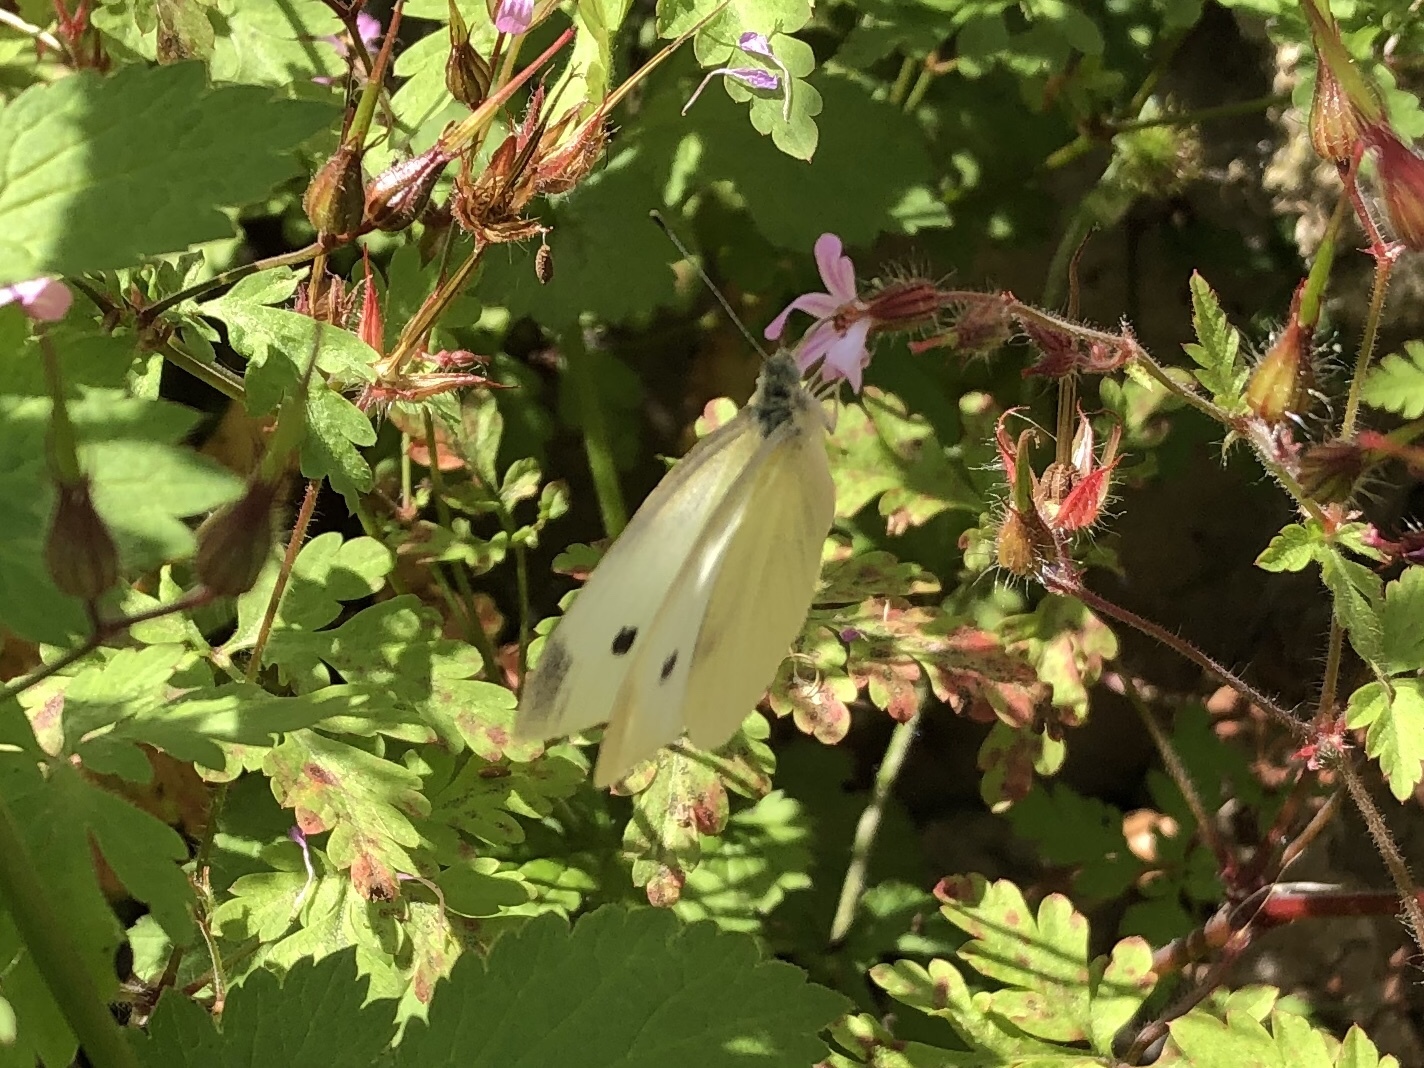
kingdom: Animalia
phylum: Arthropoda
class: Insecta
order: Lepidoptera
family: Pieridae
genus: Pieris
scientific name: Pieris rapae
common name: Small white
